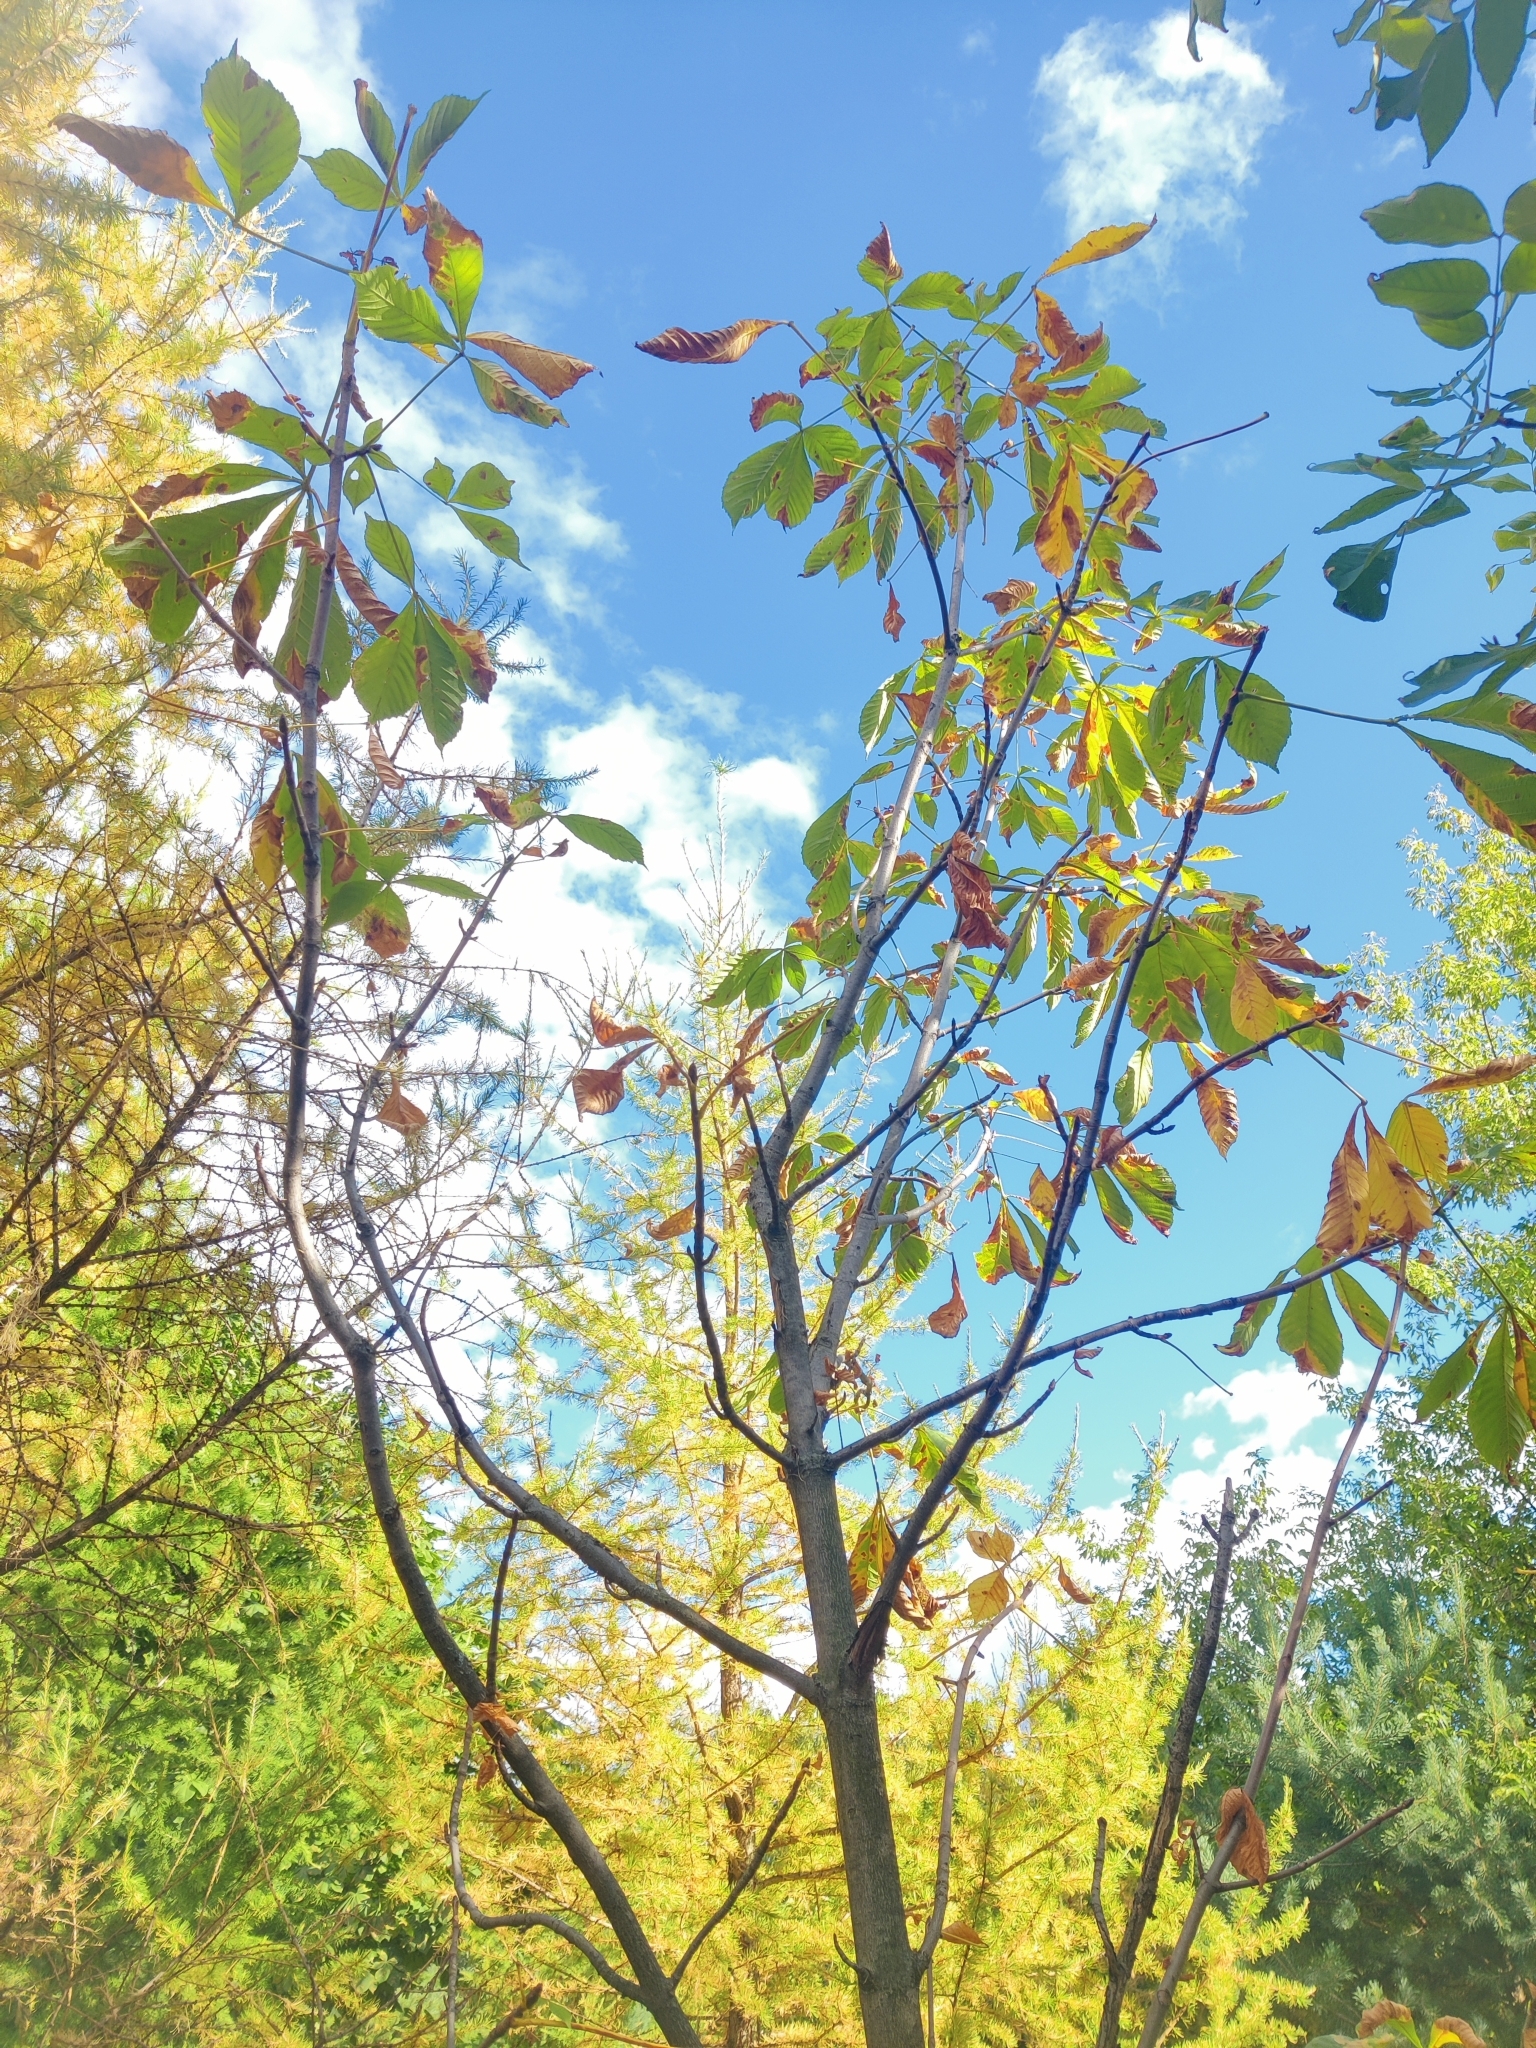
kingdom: Plantae
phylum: Tracheophyta
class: Magnoliopsida
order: Sapindales
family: Sapindaceae
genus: Aesculus
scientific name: Aesculus hippocastanum
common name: Horse-chestnut
